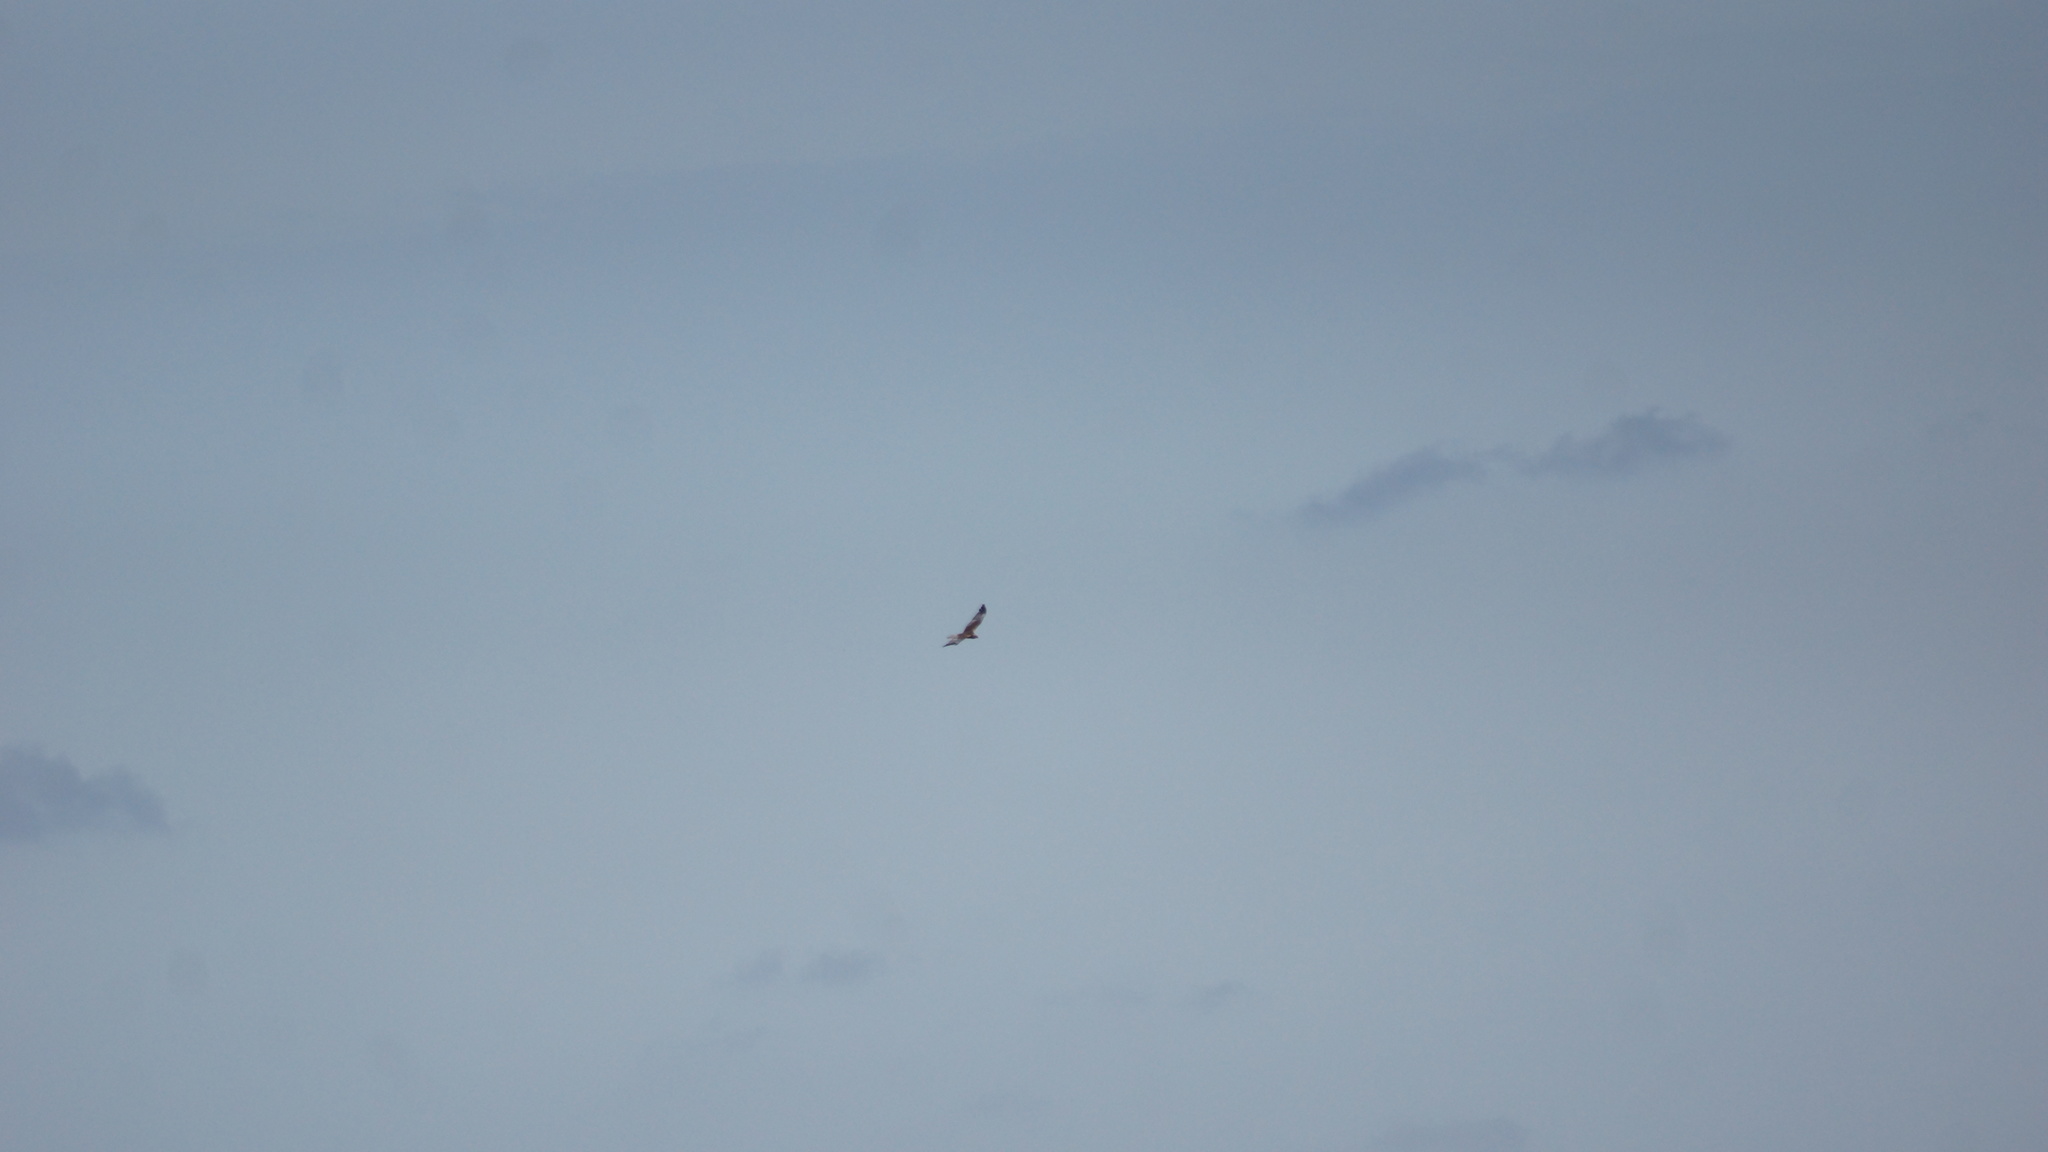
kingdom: Animalia
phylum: Chordata
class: Aves
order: Accipitriformes
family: Accipitridae
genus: Circus
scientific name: Circus aeruginosus
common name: Western marsh harrier
